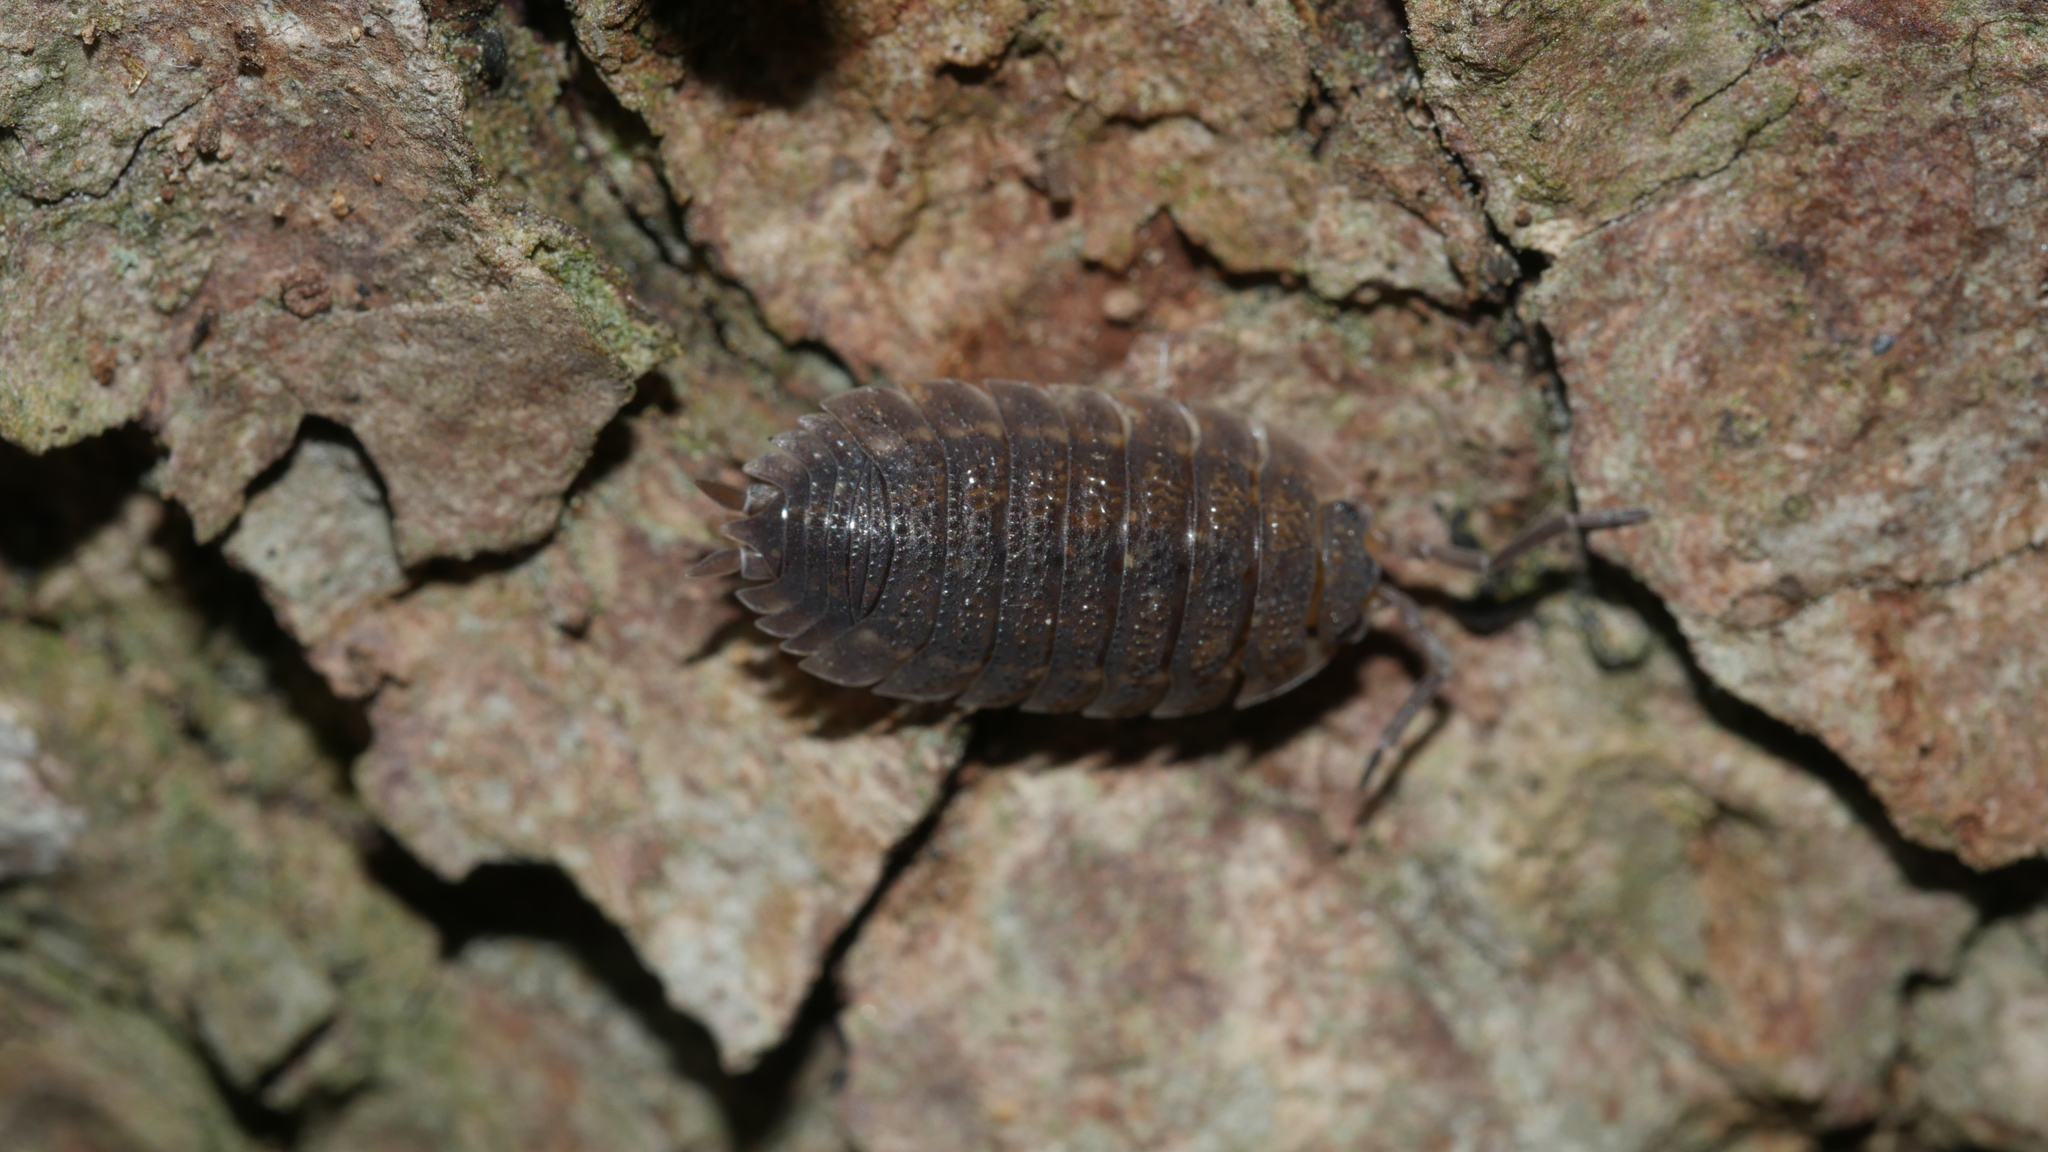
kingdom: Animalia
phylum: Arthropoda
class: Malacostraca
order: Isopoda
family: Porcellionidae
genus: Porcellio
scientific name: Porcellio scaber
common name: Common rough woodlouse
